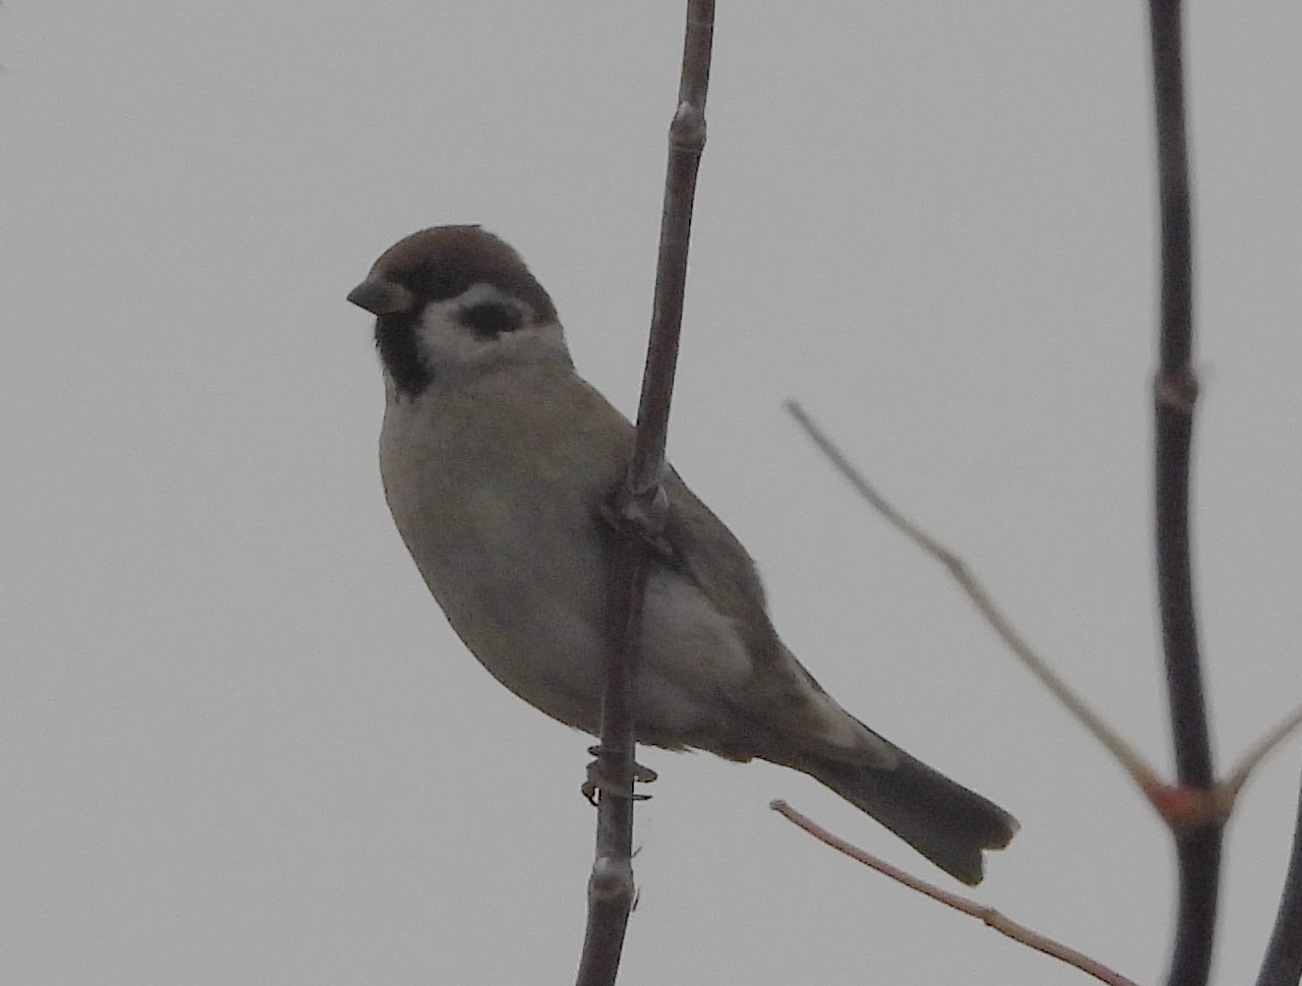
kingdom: Animalia
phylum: Chordata
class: Aves
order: Passeriformes
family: Passeridae
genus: Passer
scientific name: Passer montanus
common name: Eurasian tree sparrow
